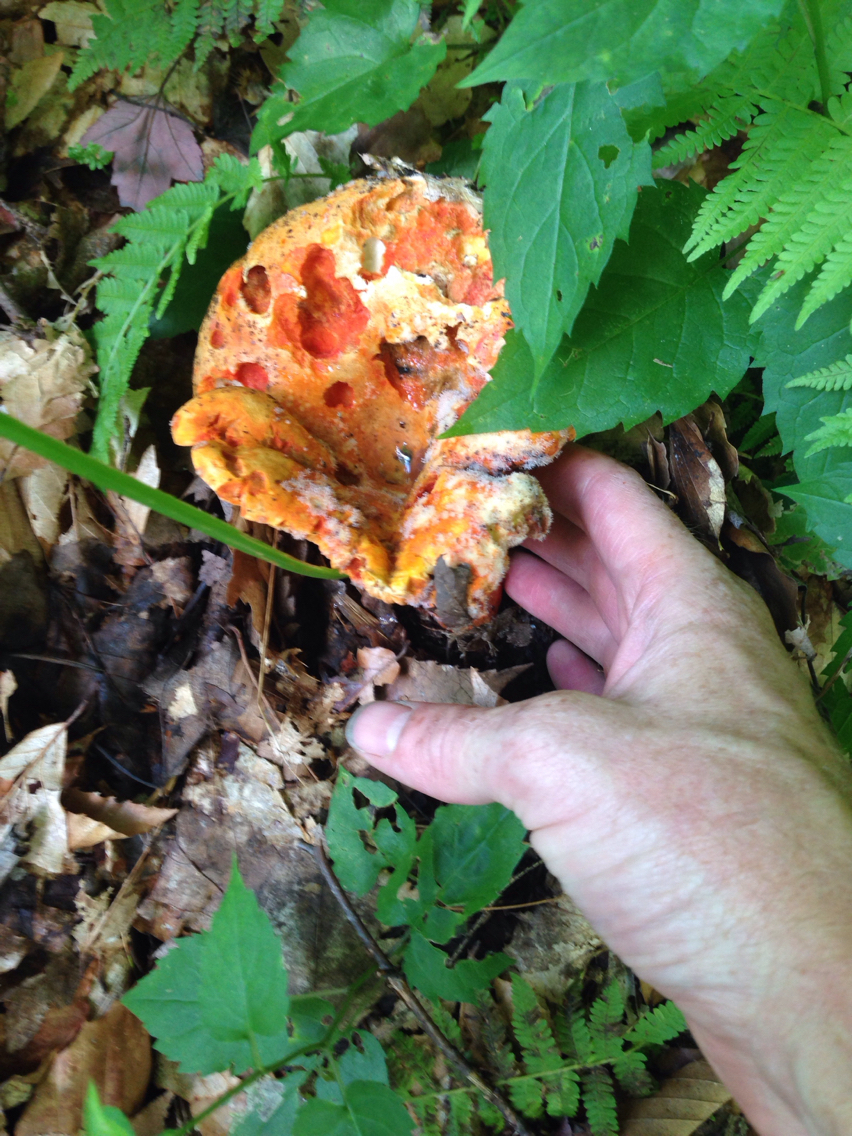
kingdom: Fungi
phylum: Ascomycota
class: Sordariomycetes
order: Hypocreales
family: Hypocreaceae
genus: Hypomyces
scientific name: Hypomyces lactifluorum
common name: Lobster mushroom
